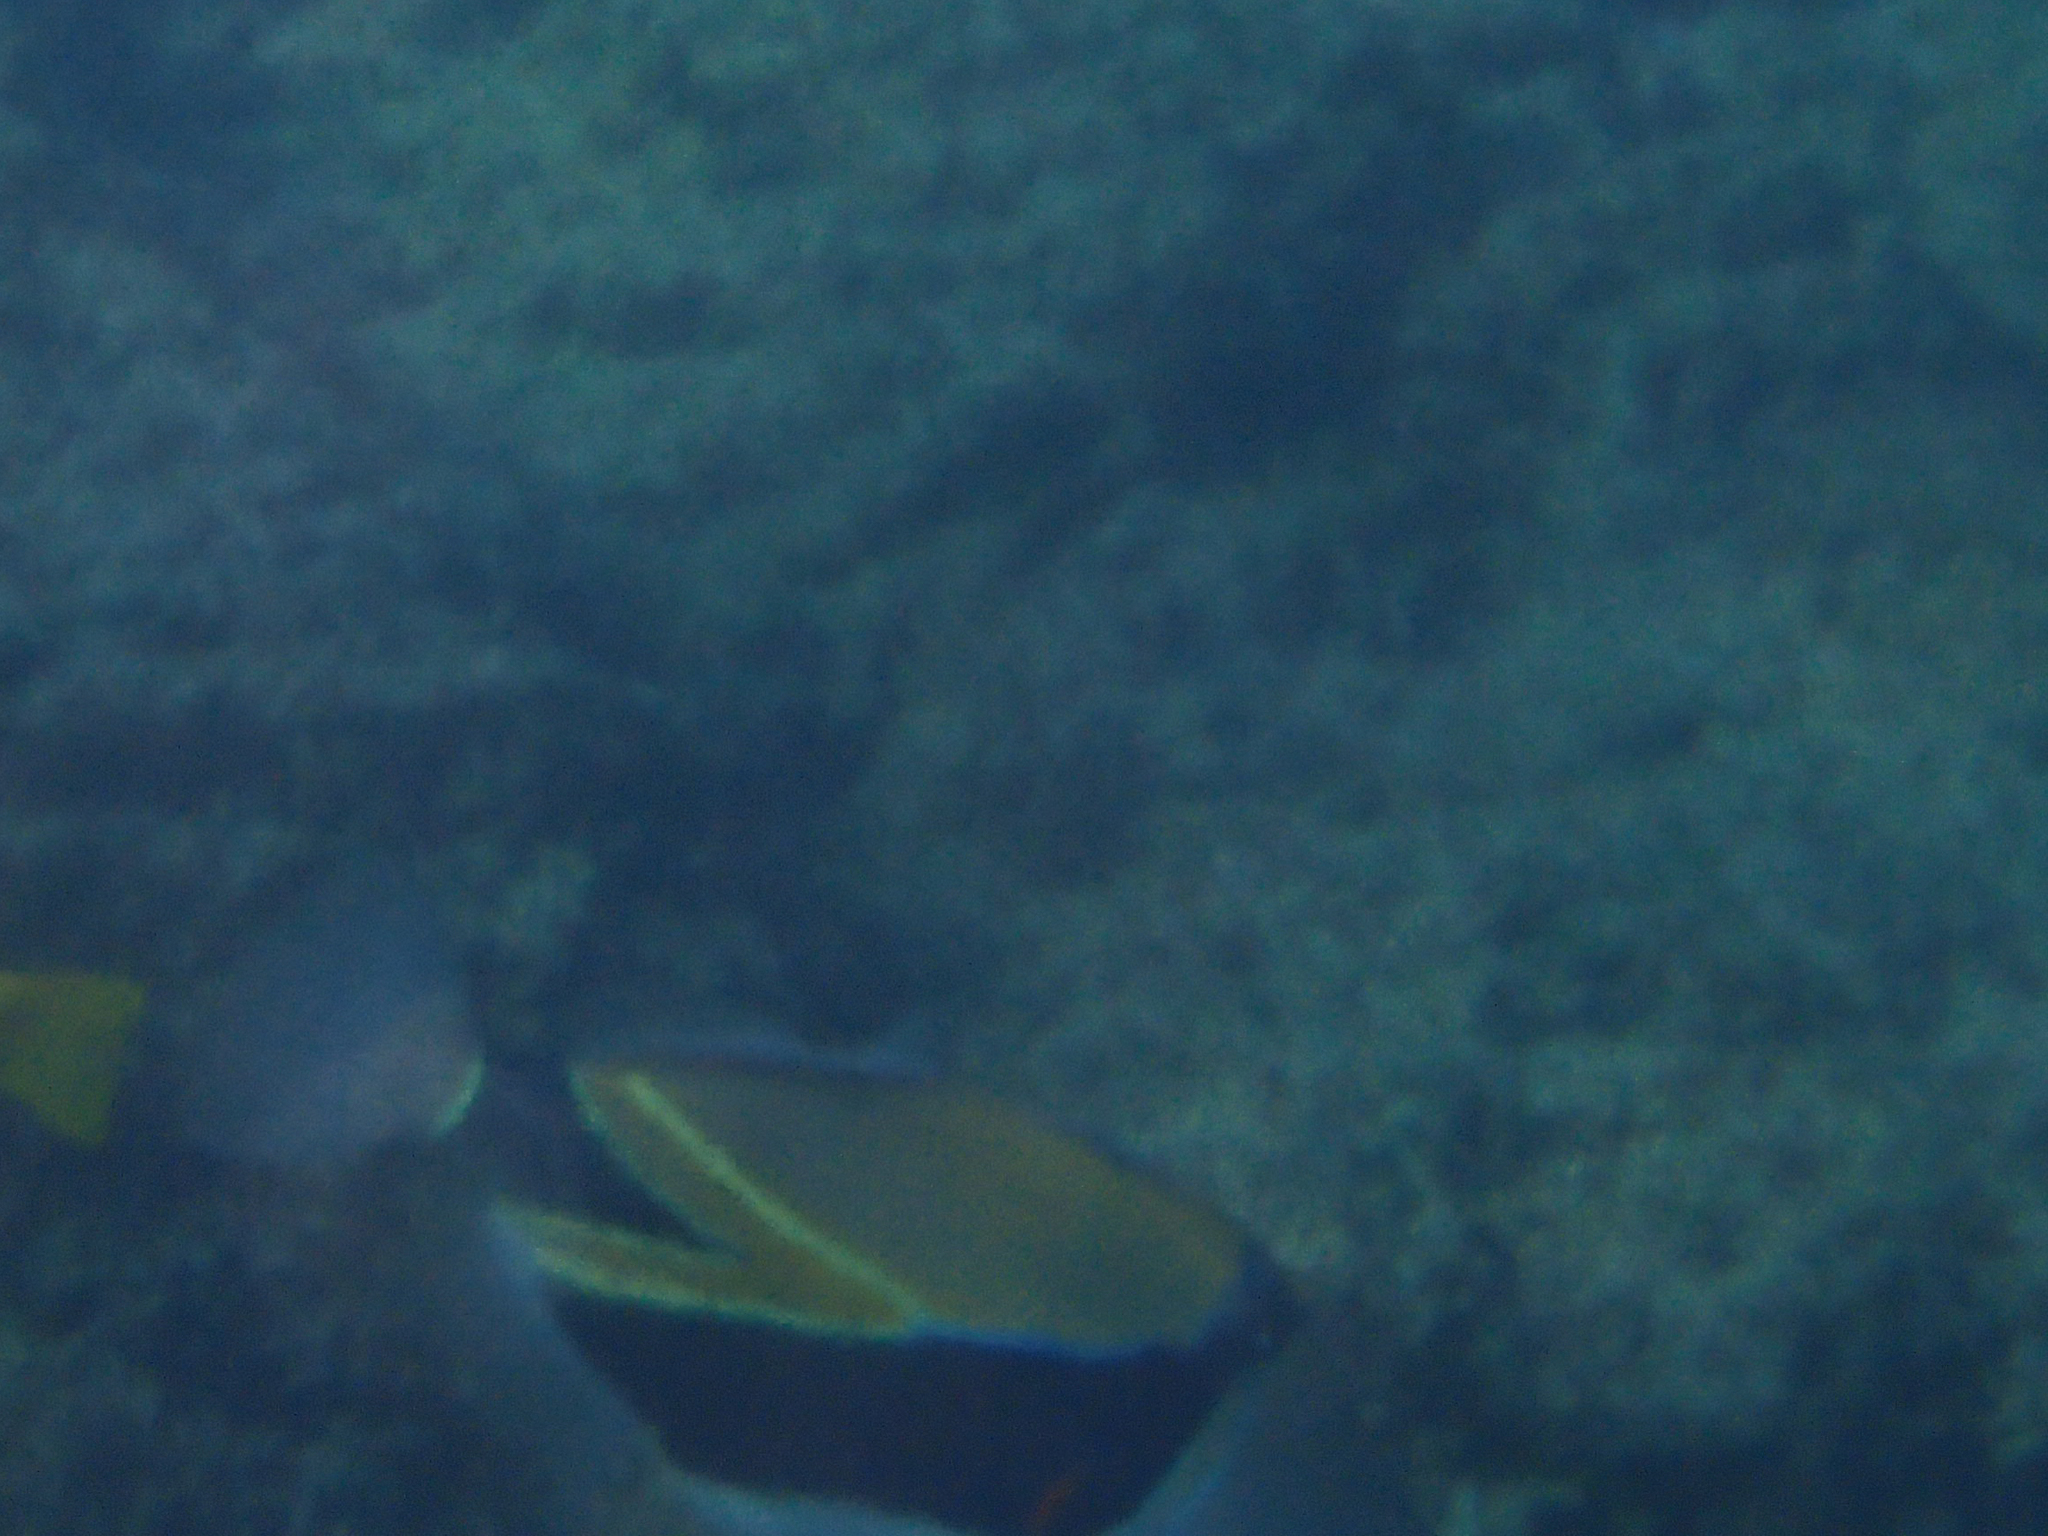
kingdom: Animalia
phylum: Chordata
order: Tetraodontiformes
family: Balistidae
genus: Rhinecanthus
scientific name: Rhinecanthus rectangulus
